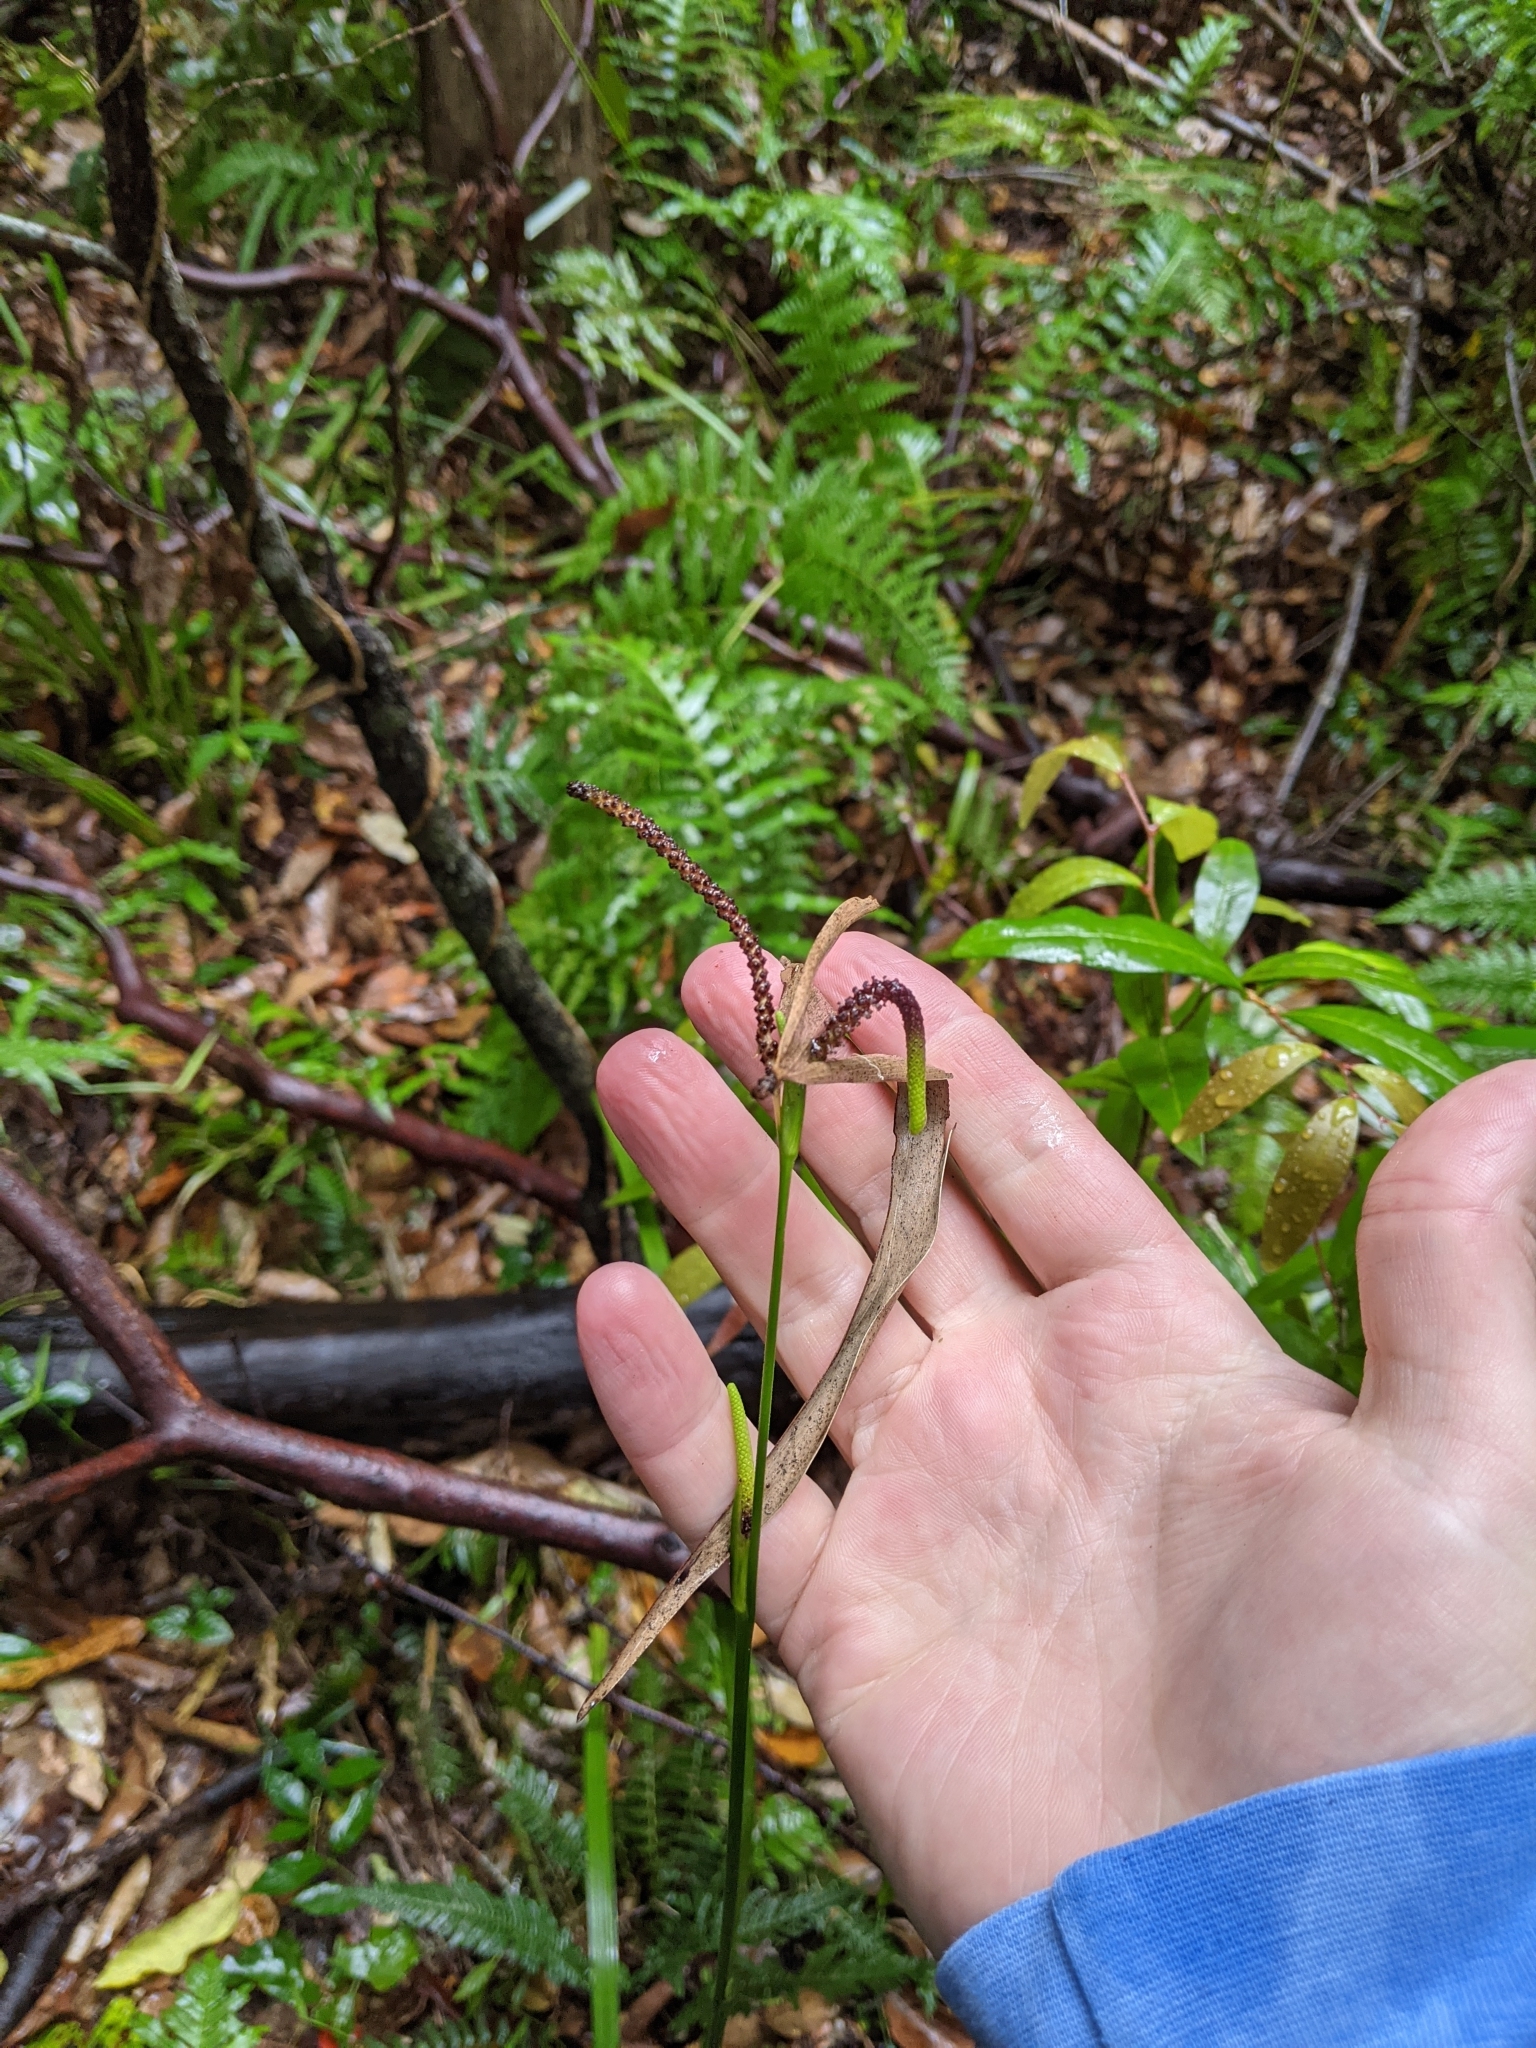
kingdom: Plantae
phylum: Tracheophyta
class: Liliopsida
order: Alismatales
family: Araceae
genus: Gymnostachys
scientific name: Gymnostachys anceps
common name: Settler's-flax
